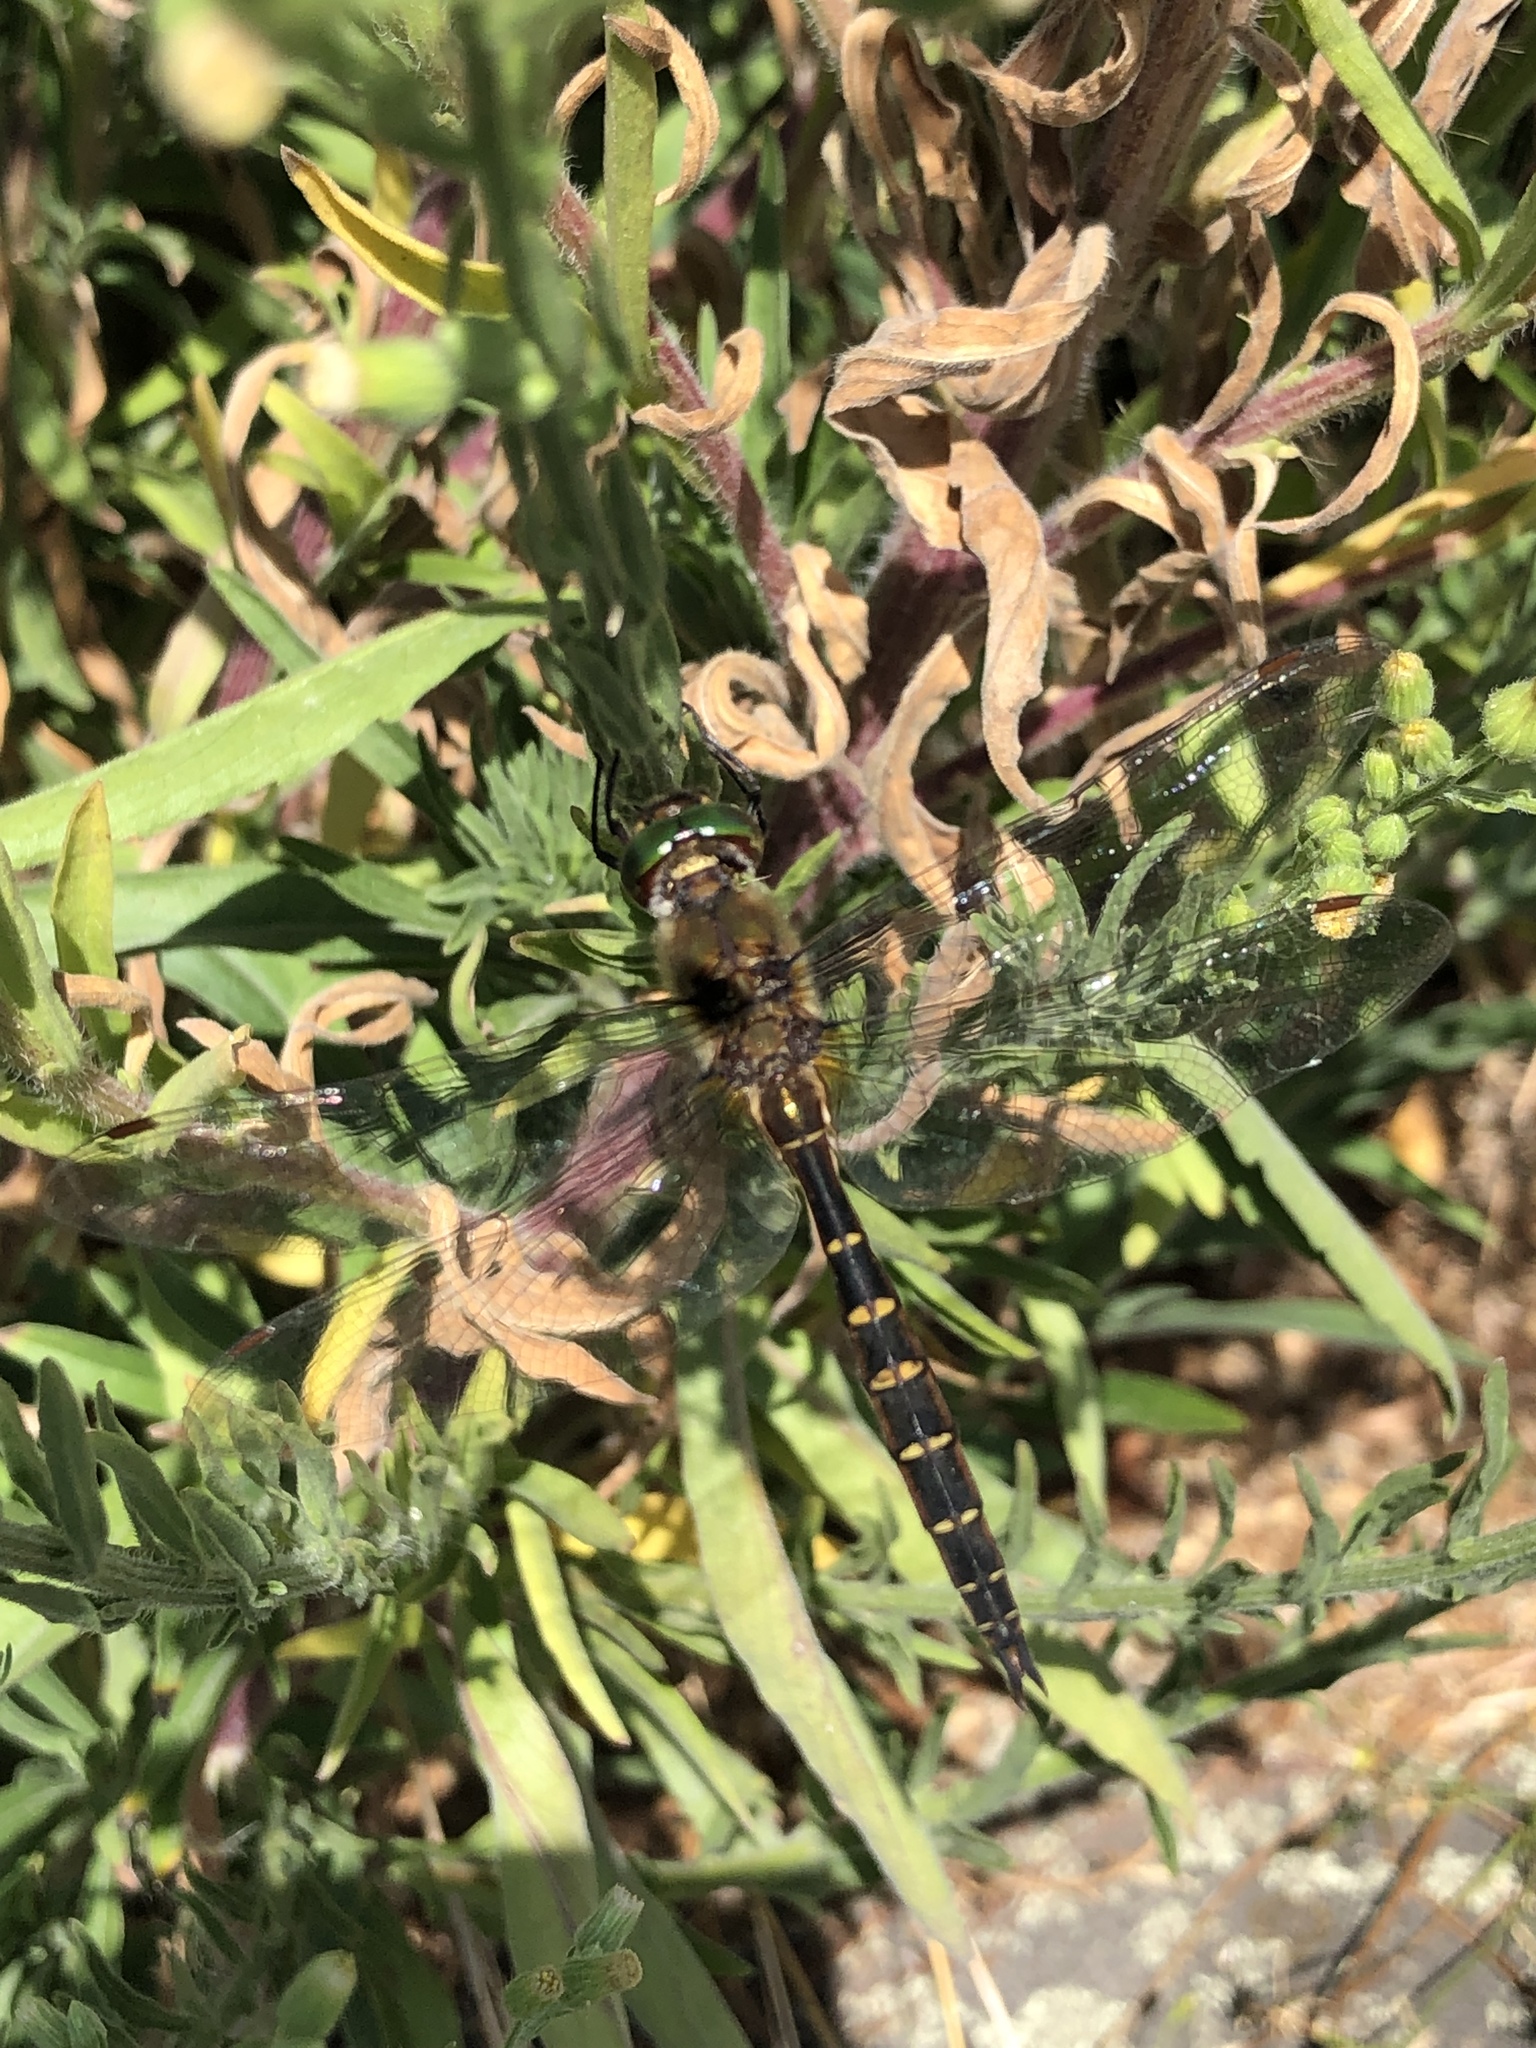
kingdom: Animalia
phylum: Arthropoda
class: Insecta
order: Odonata
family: Corduliidae
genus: Procordulia
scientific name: Procordulia smithii
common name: Ranger dragonfly
